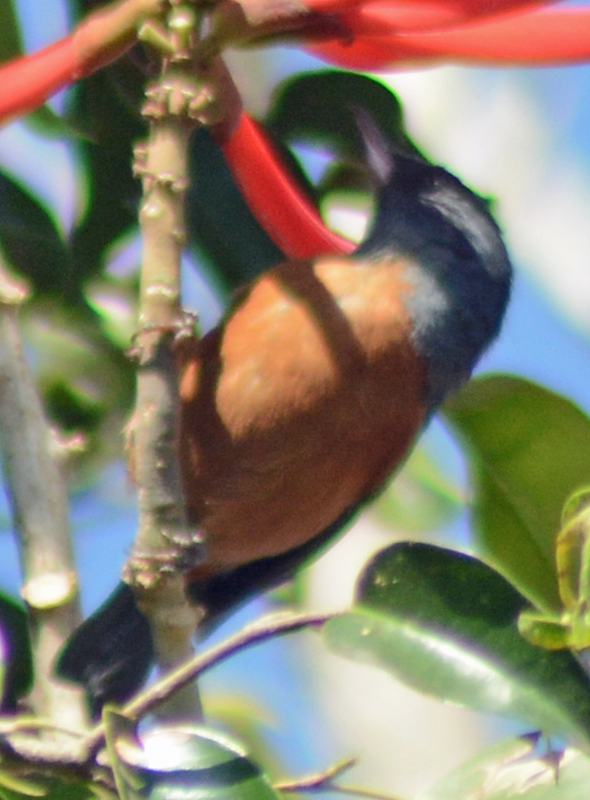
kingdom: Animalia
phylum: Chordata
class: Aves
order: Passeriformes
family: Thraupidae
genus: Diglossa
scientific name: Diglossa baritula
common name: Cinnamon-bellied flowerpiercer
